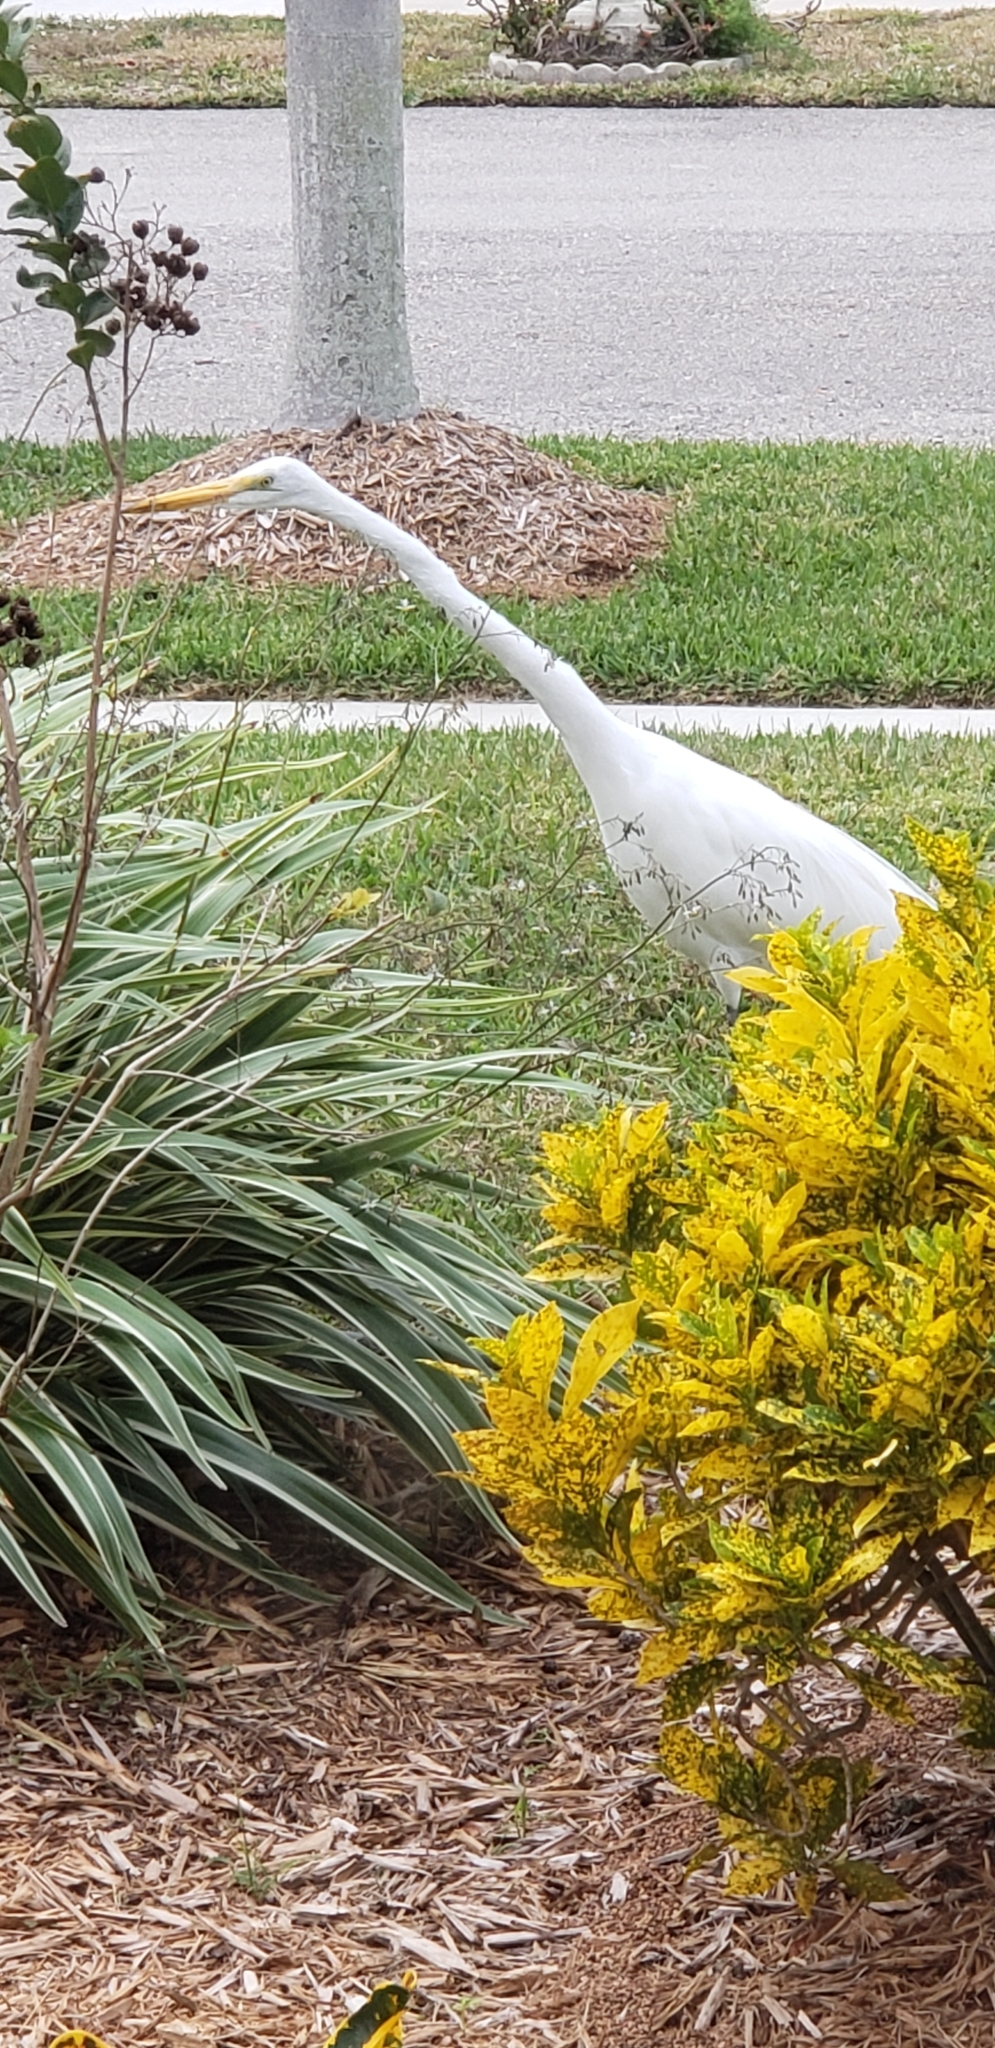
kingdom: Animalia
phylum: Chordata
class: Aves
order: Pelecaniformes
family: Ardeidae
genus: Ardea
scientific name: Ardea alba
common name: Great egret
